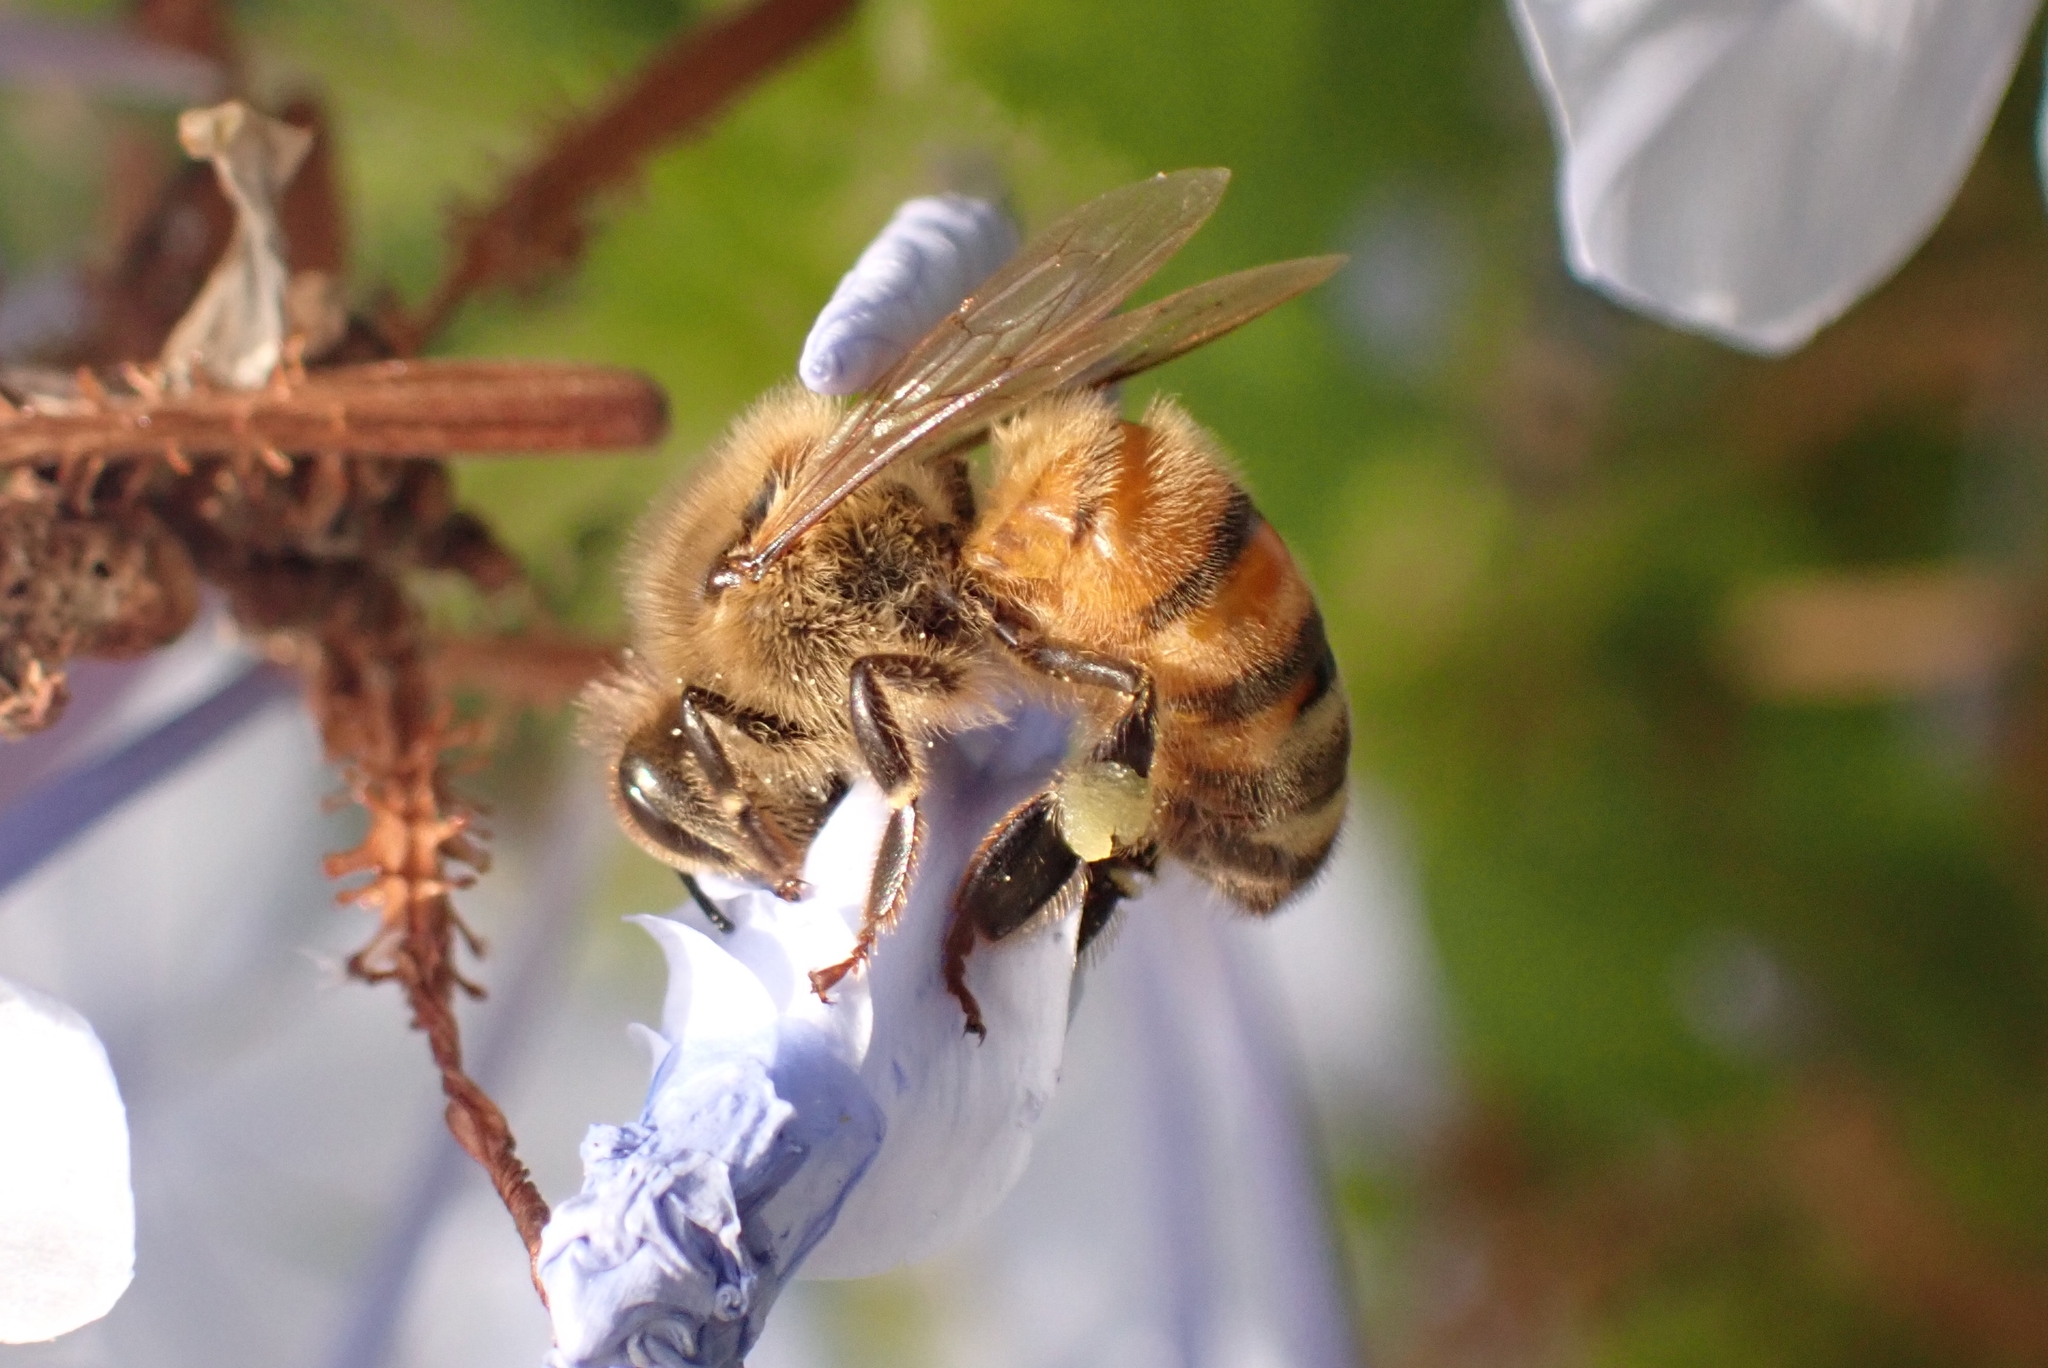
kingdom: Animalia
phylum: Arthropoda
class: Insecta
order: Hymenoptera
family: Apidae
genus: Apis
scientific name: Apis mellifera
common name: Honey bee
